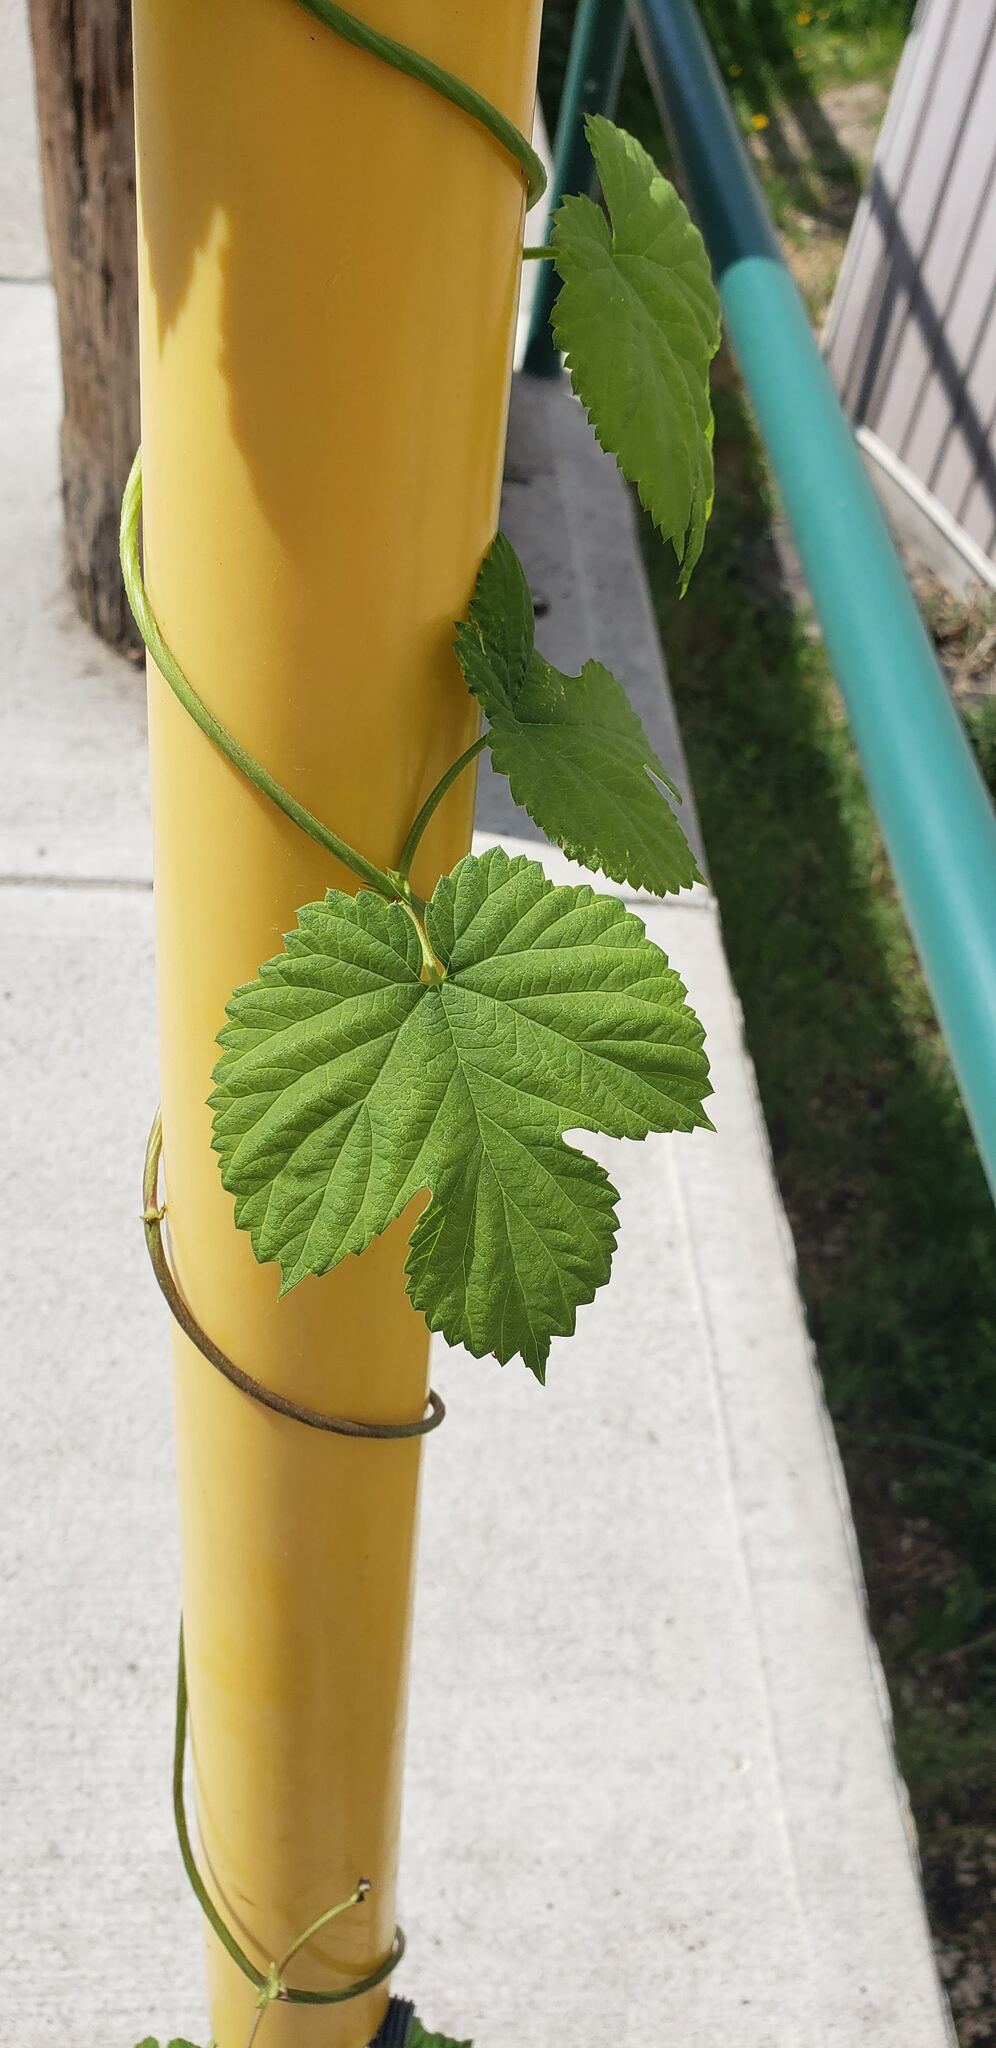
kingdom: Plantae
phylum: Tracheophyta
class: Magnoliopsida
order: Rosales
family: Cannabaceae
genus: Humulus
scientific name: Humulus lupulus
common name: Hop
